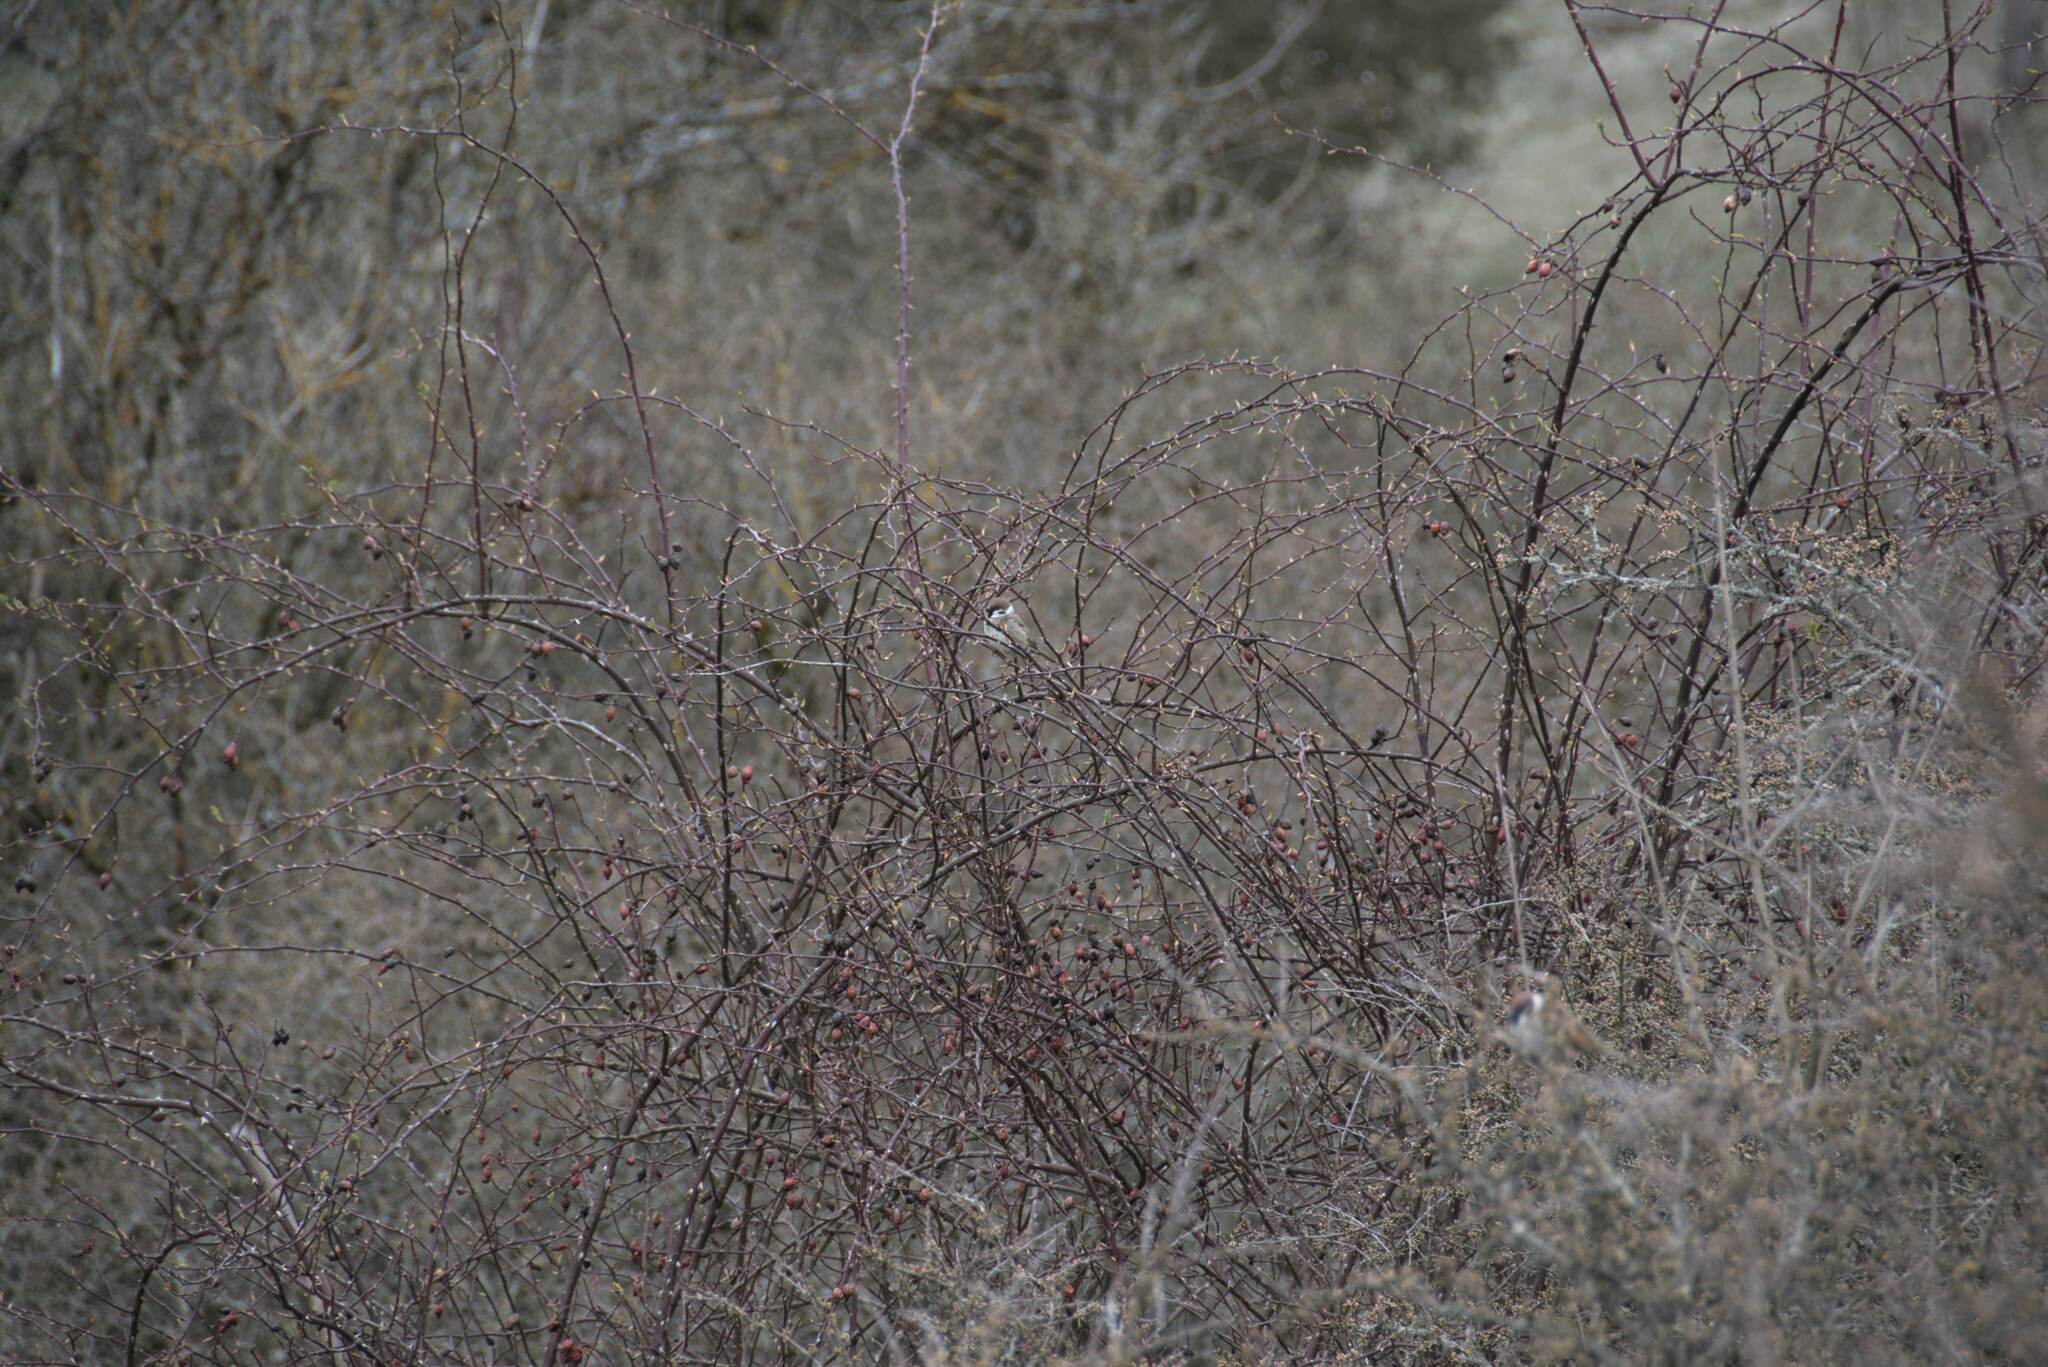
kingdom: Animalia
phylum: Chordata
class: Aves
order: Passeriformes
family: Passeridae
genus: Passer
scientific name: Passer montanus
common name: Eurasian tree sparrow
